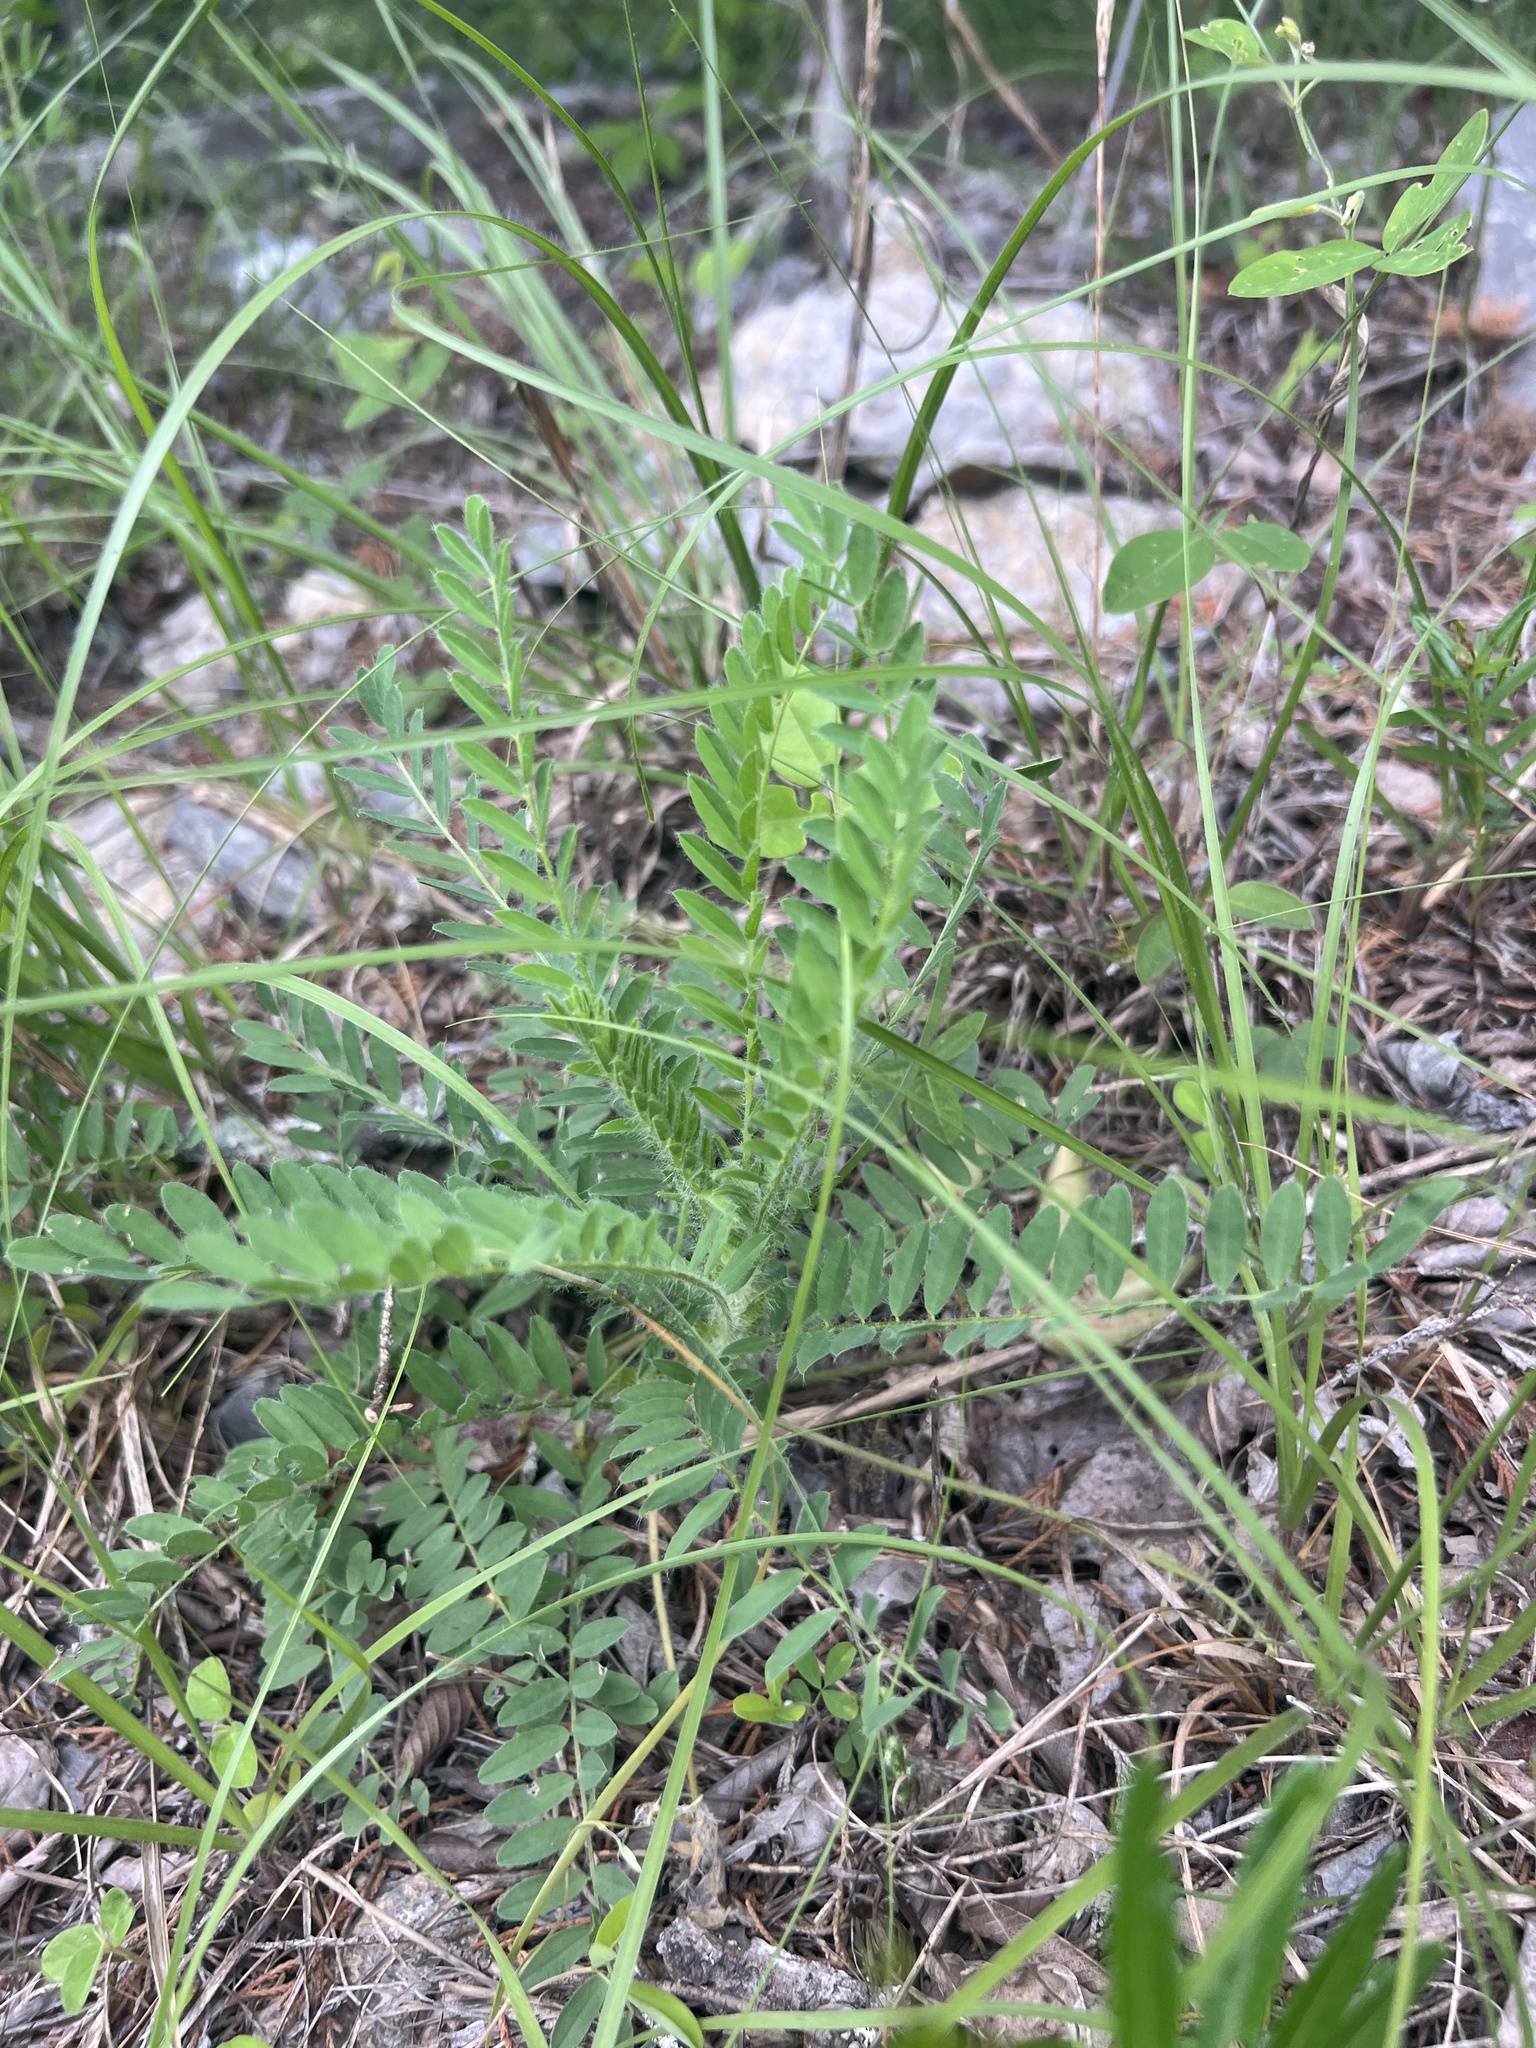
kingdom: Plantae
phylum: Tracheophyta
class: Magnoliopsida
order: Fabales
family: Fabaceae
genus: Astragalus
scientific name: Astragalus tennesseensis
